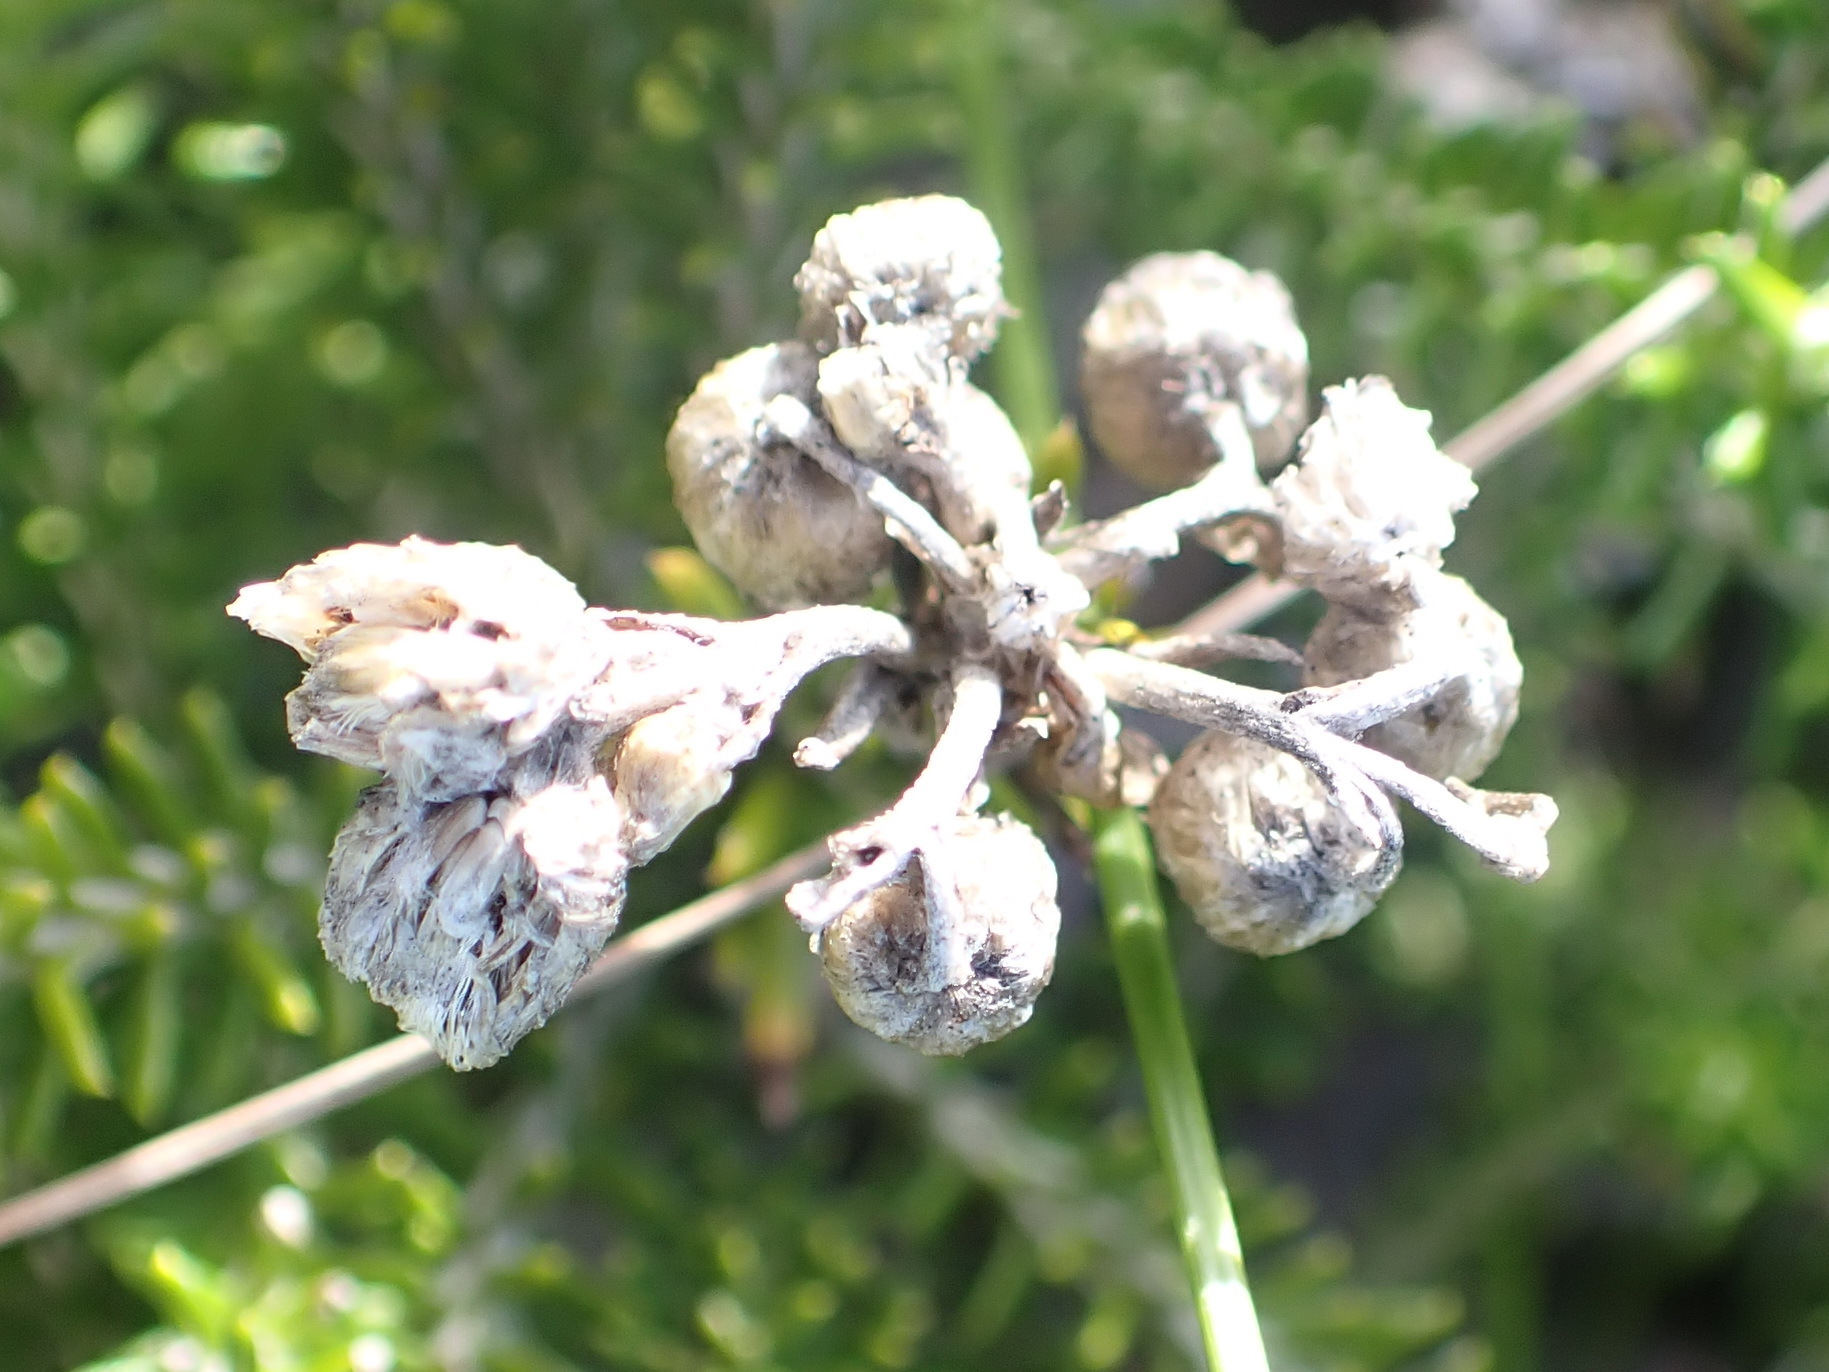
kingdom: Plantae
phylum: Tracheophyta
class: Magnoliopsida
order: Asterales
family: Asteraceae
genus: Helichrysum
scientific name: Helichrysum teretifolium
